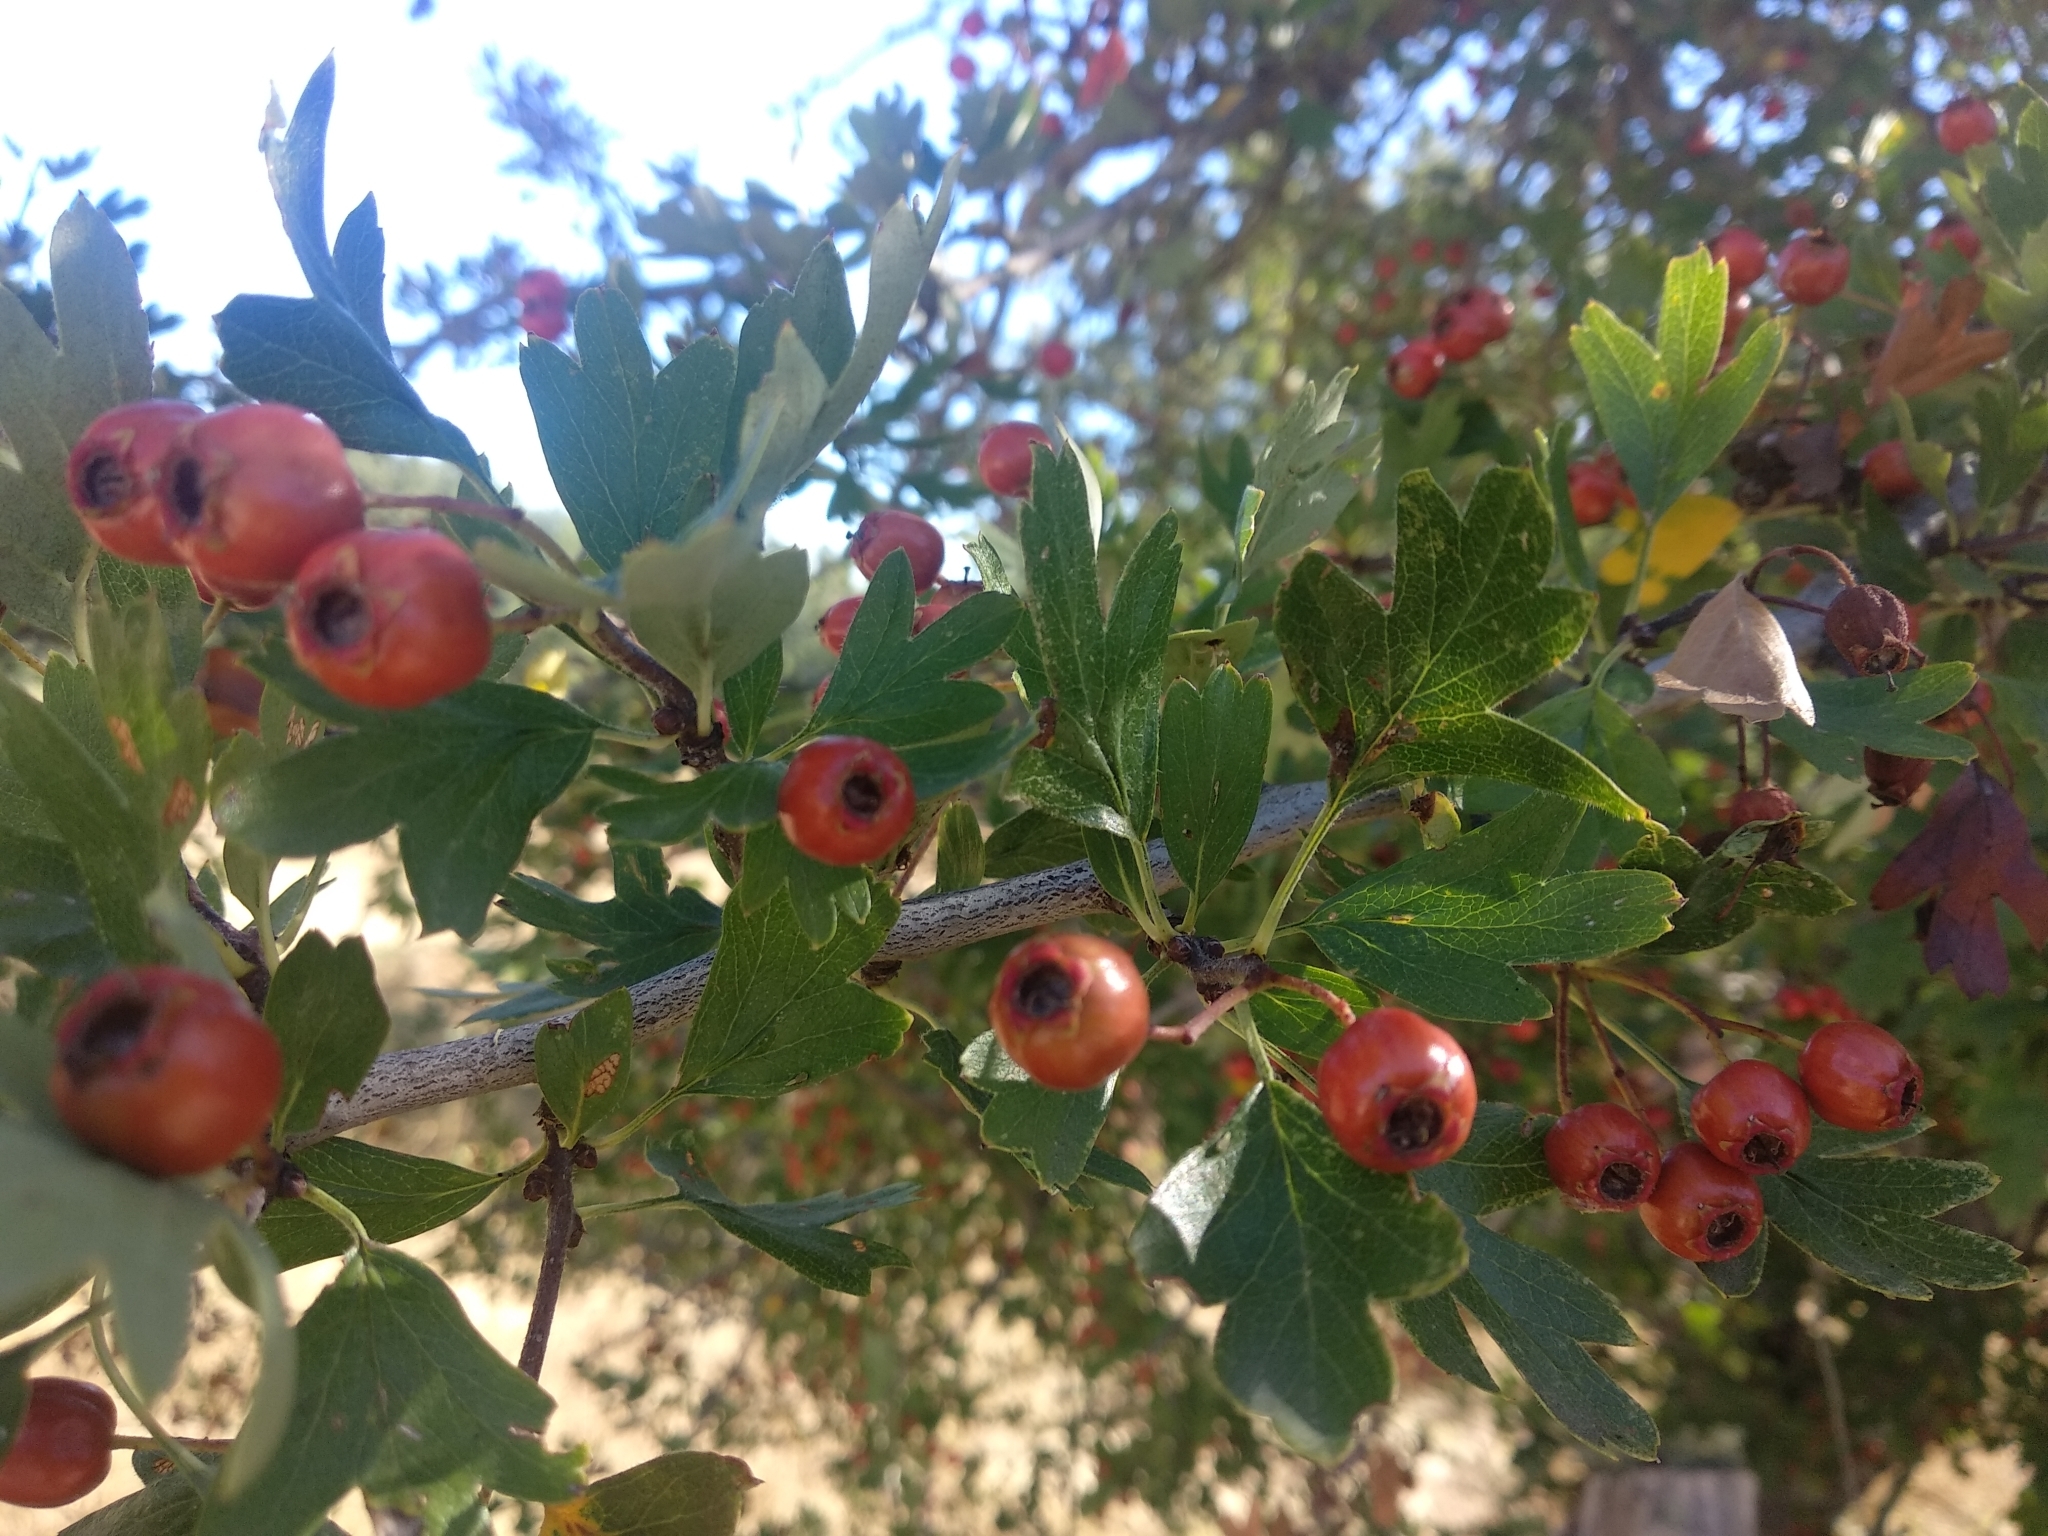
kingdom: Plantae
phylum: Tracheophyta
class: Magnoliopsida
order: Rosales
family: Rosaceae
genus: Crataegus
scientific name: Crataegus monogyna
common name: Hawthorn
